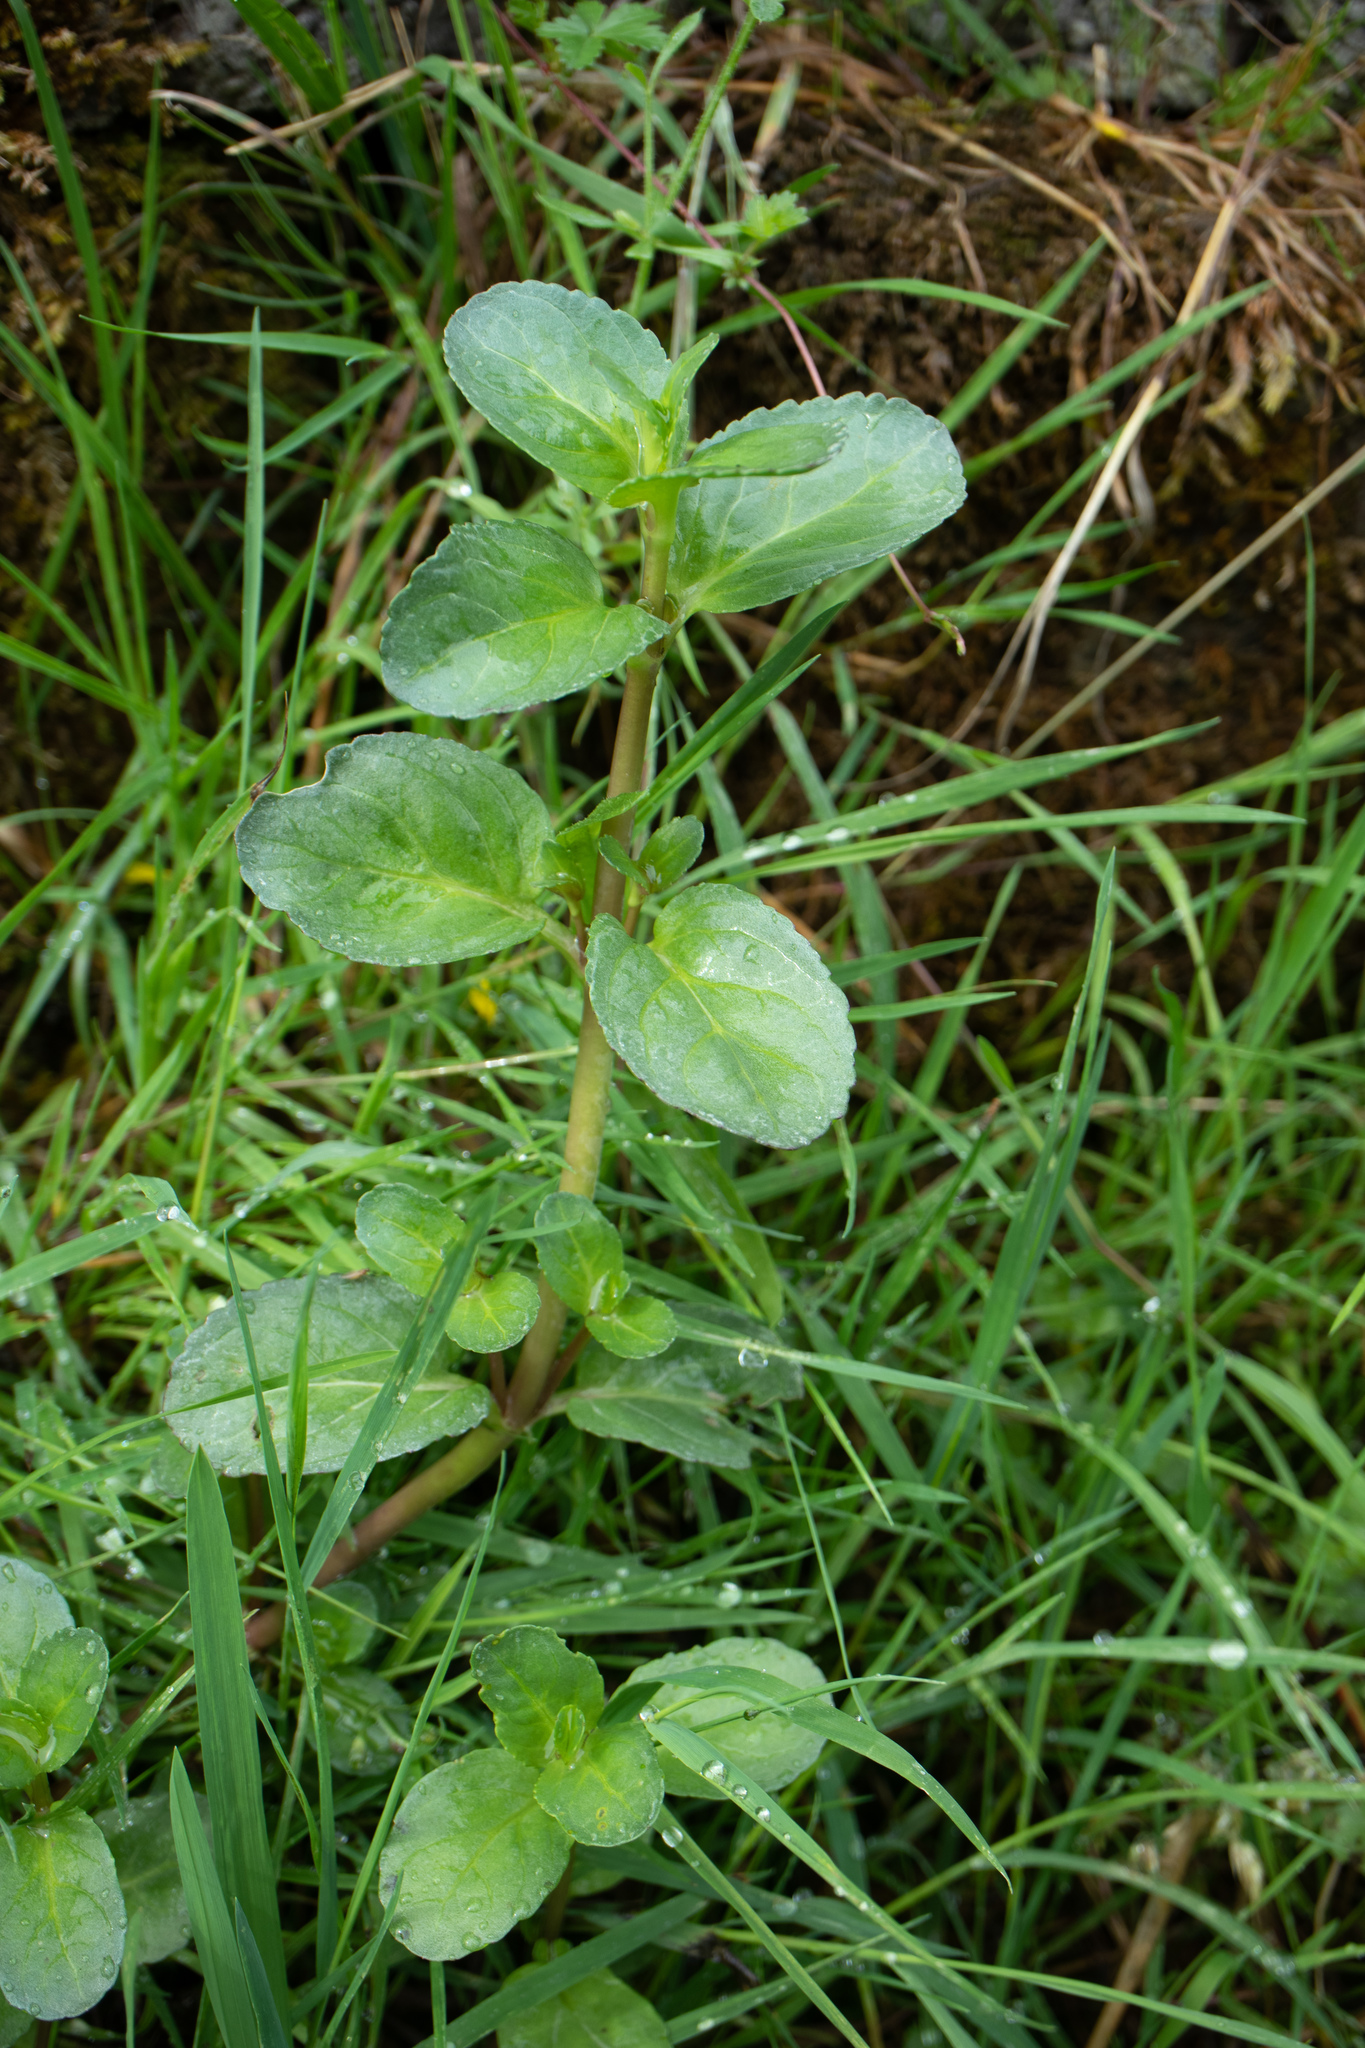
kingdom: Plantae
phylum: Tracheophyta
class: Magnoliopsida
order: Lamiales
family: Plantaginaceae
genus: Veronica
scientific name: Veronica beccabunga
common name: Brooklime
